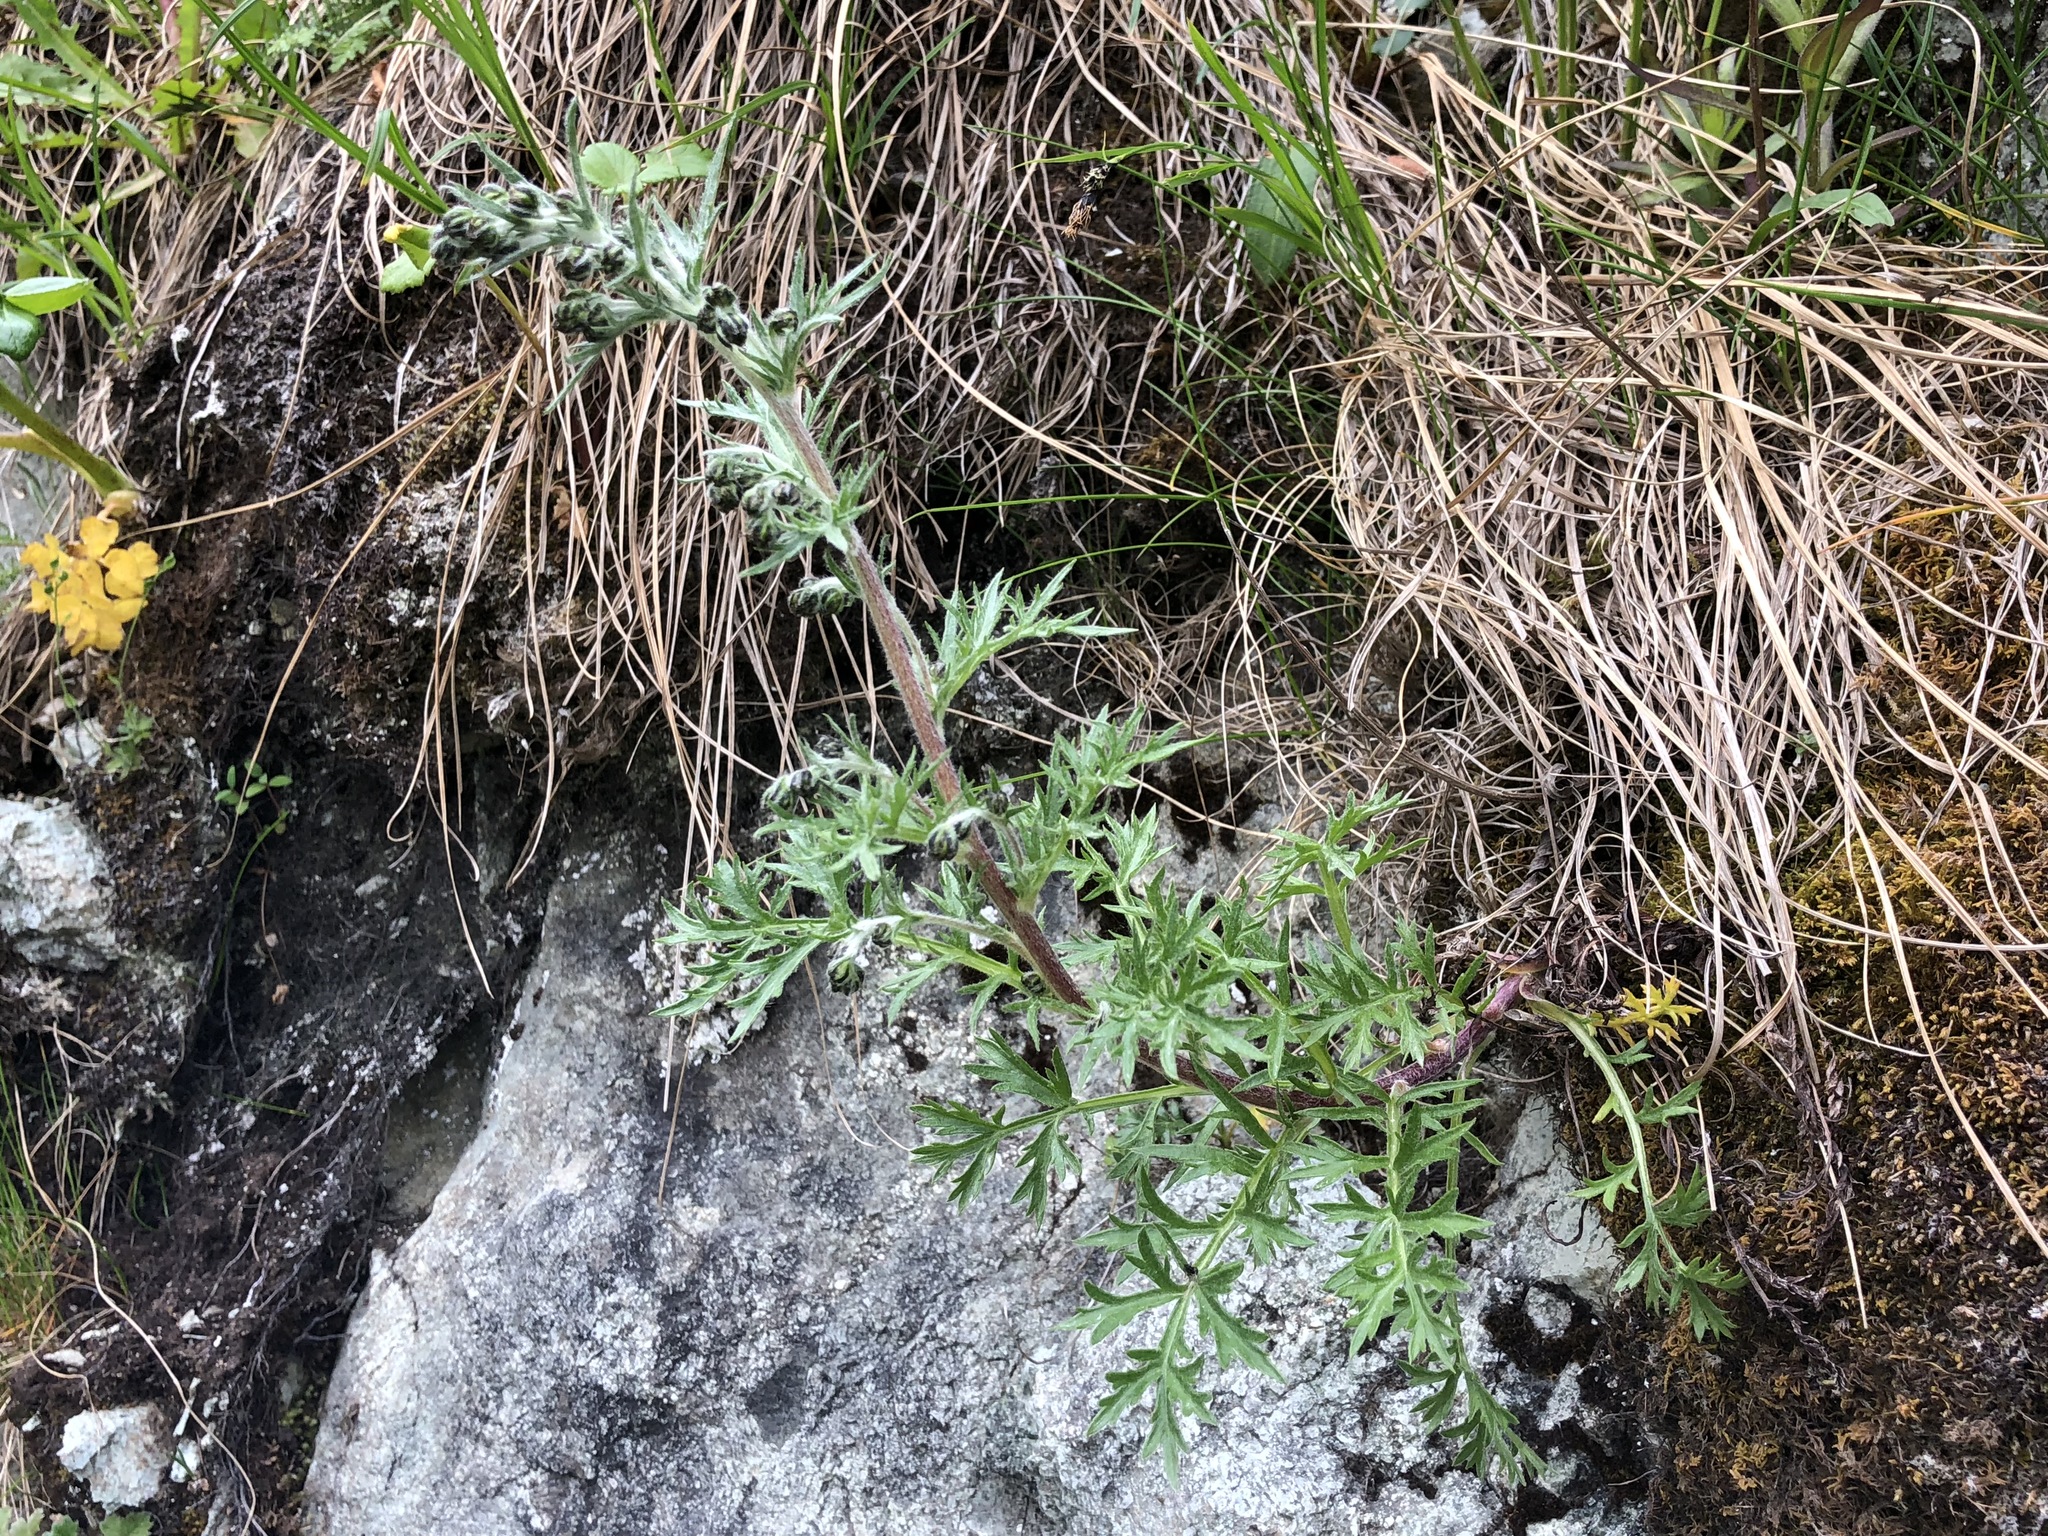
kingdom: Plantae
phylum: Tracheophyta
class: Magnoliopsida
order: Asterales
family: Asteraceae
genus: Artemisia
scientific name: Artemisia arctica
